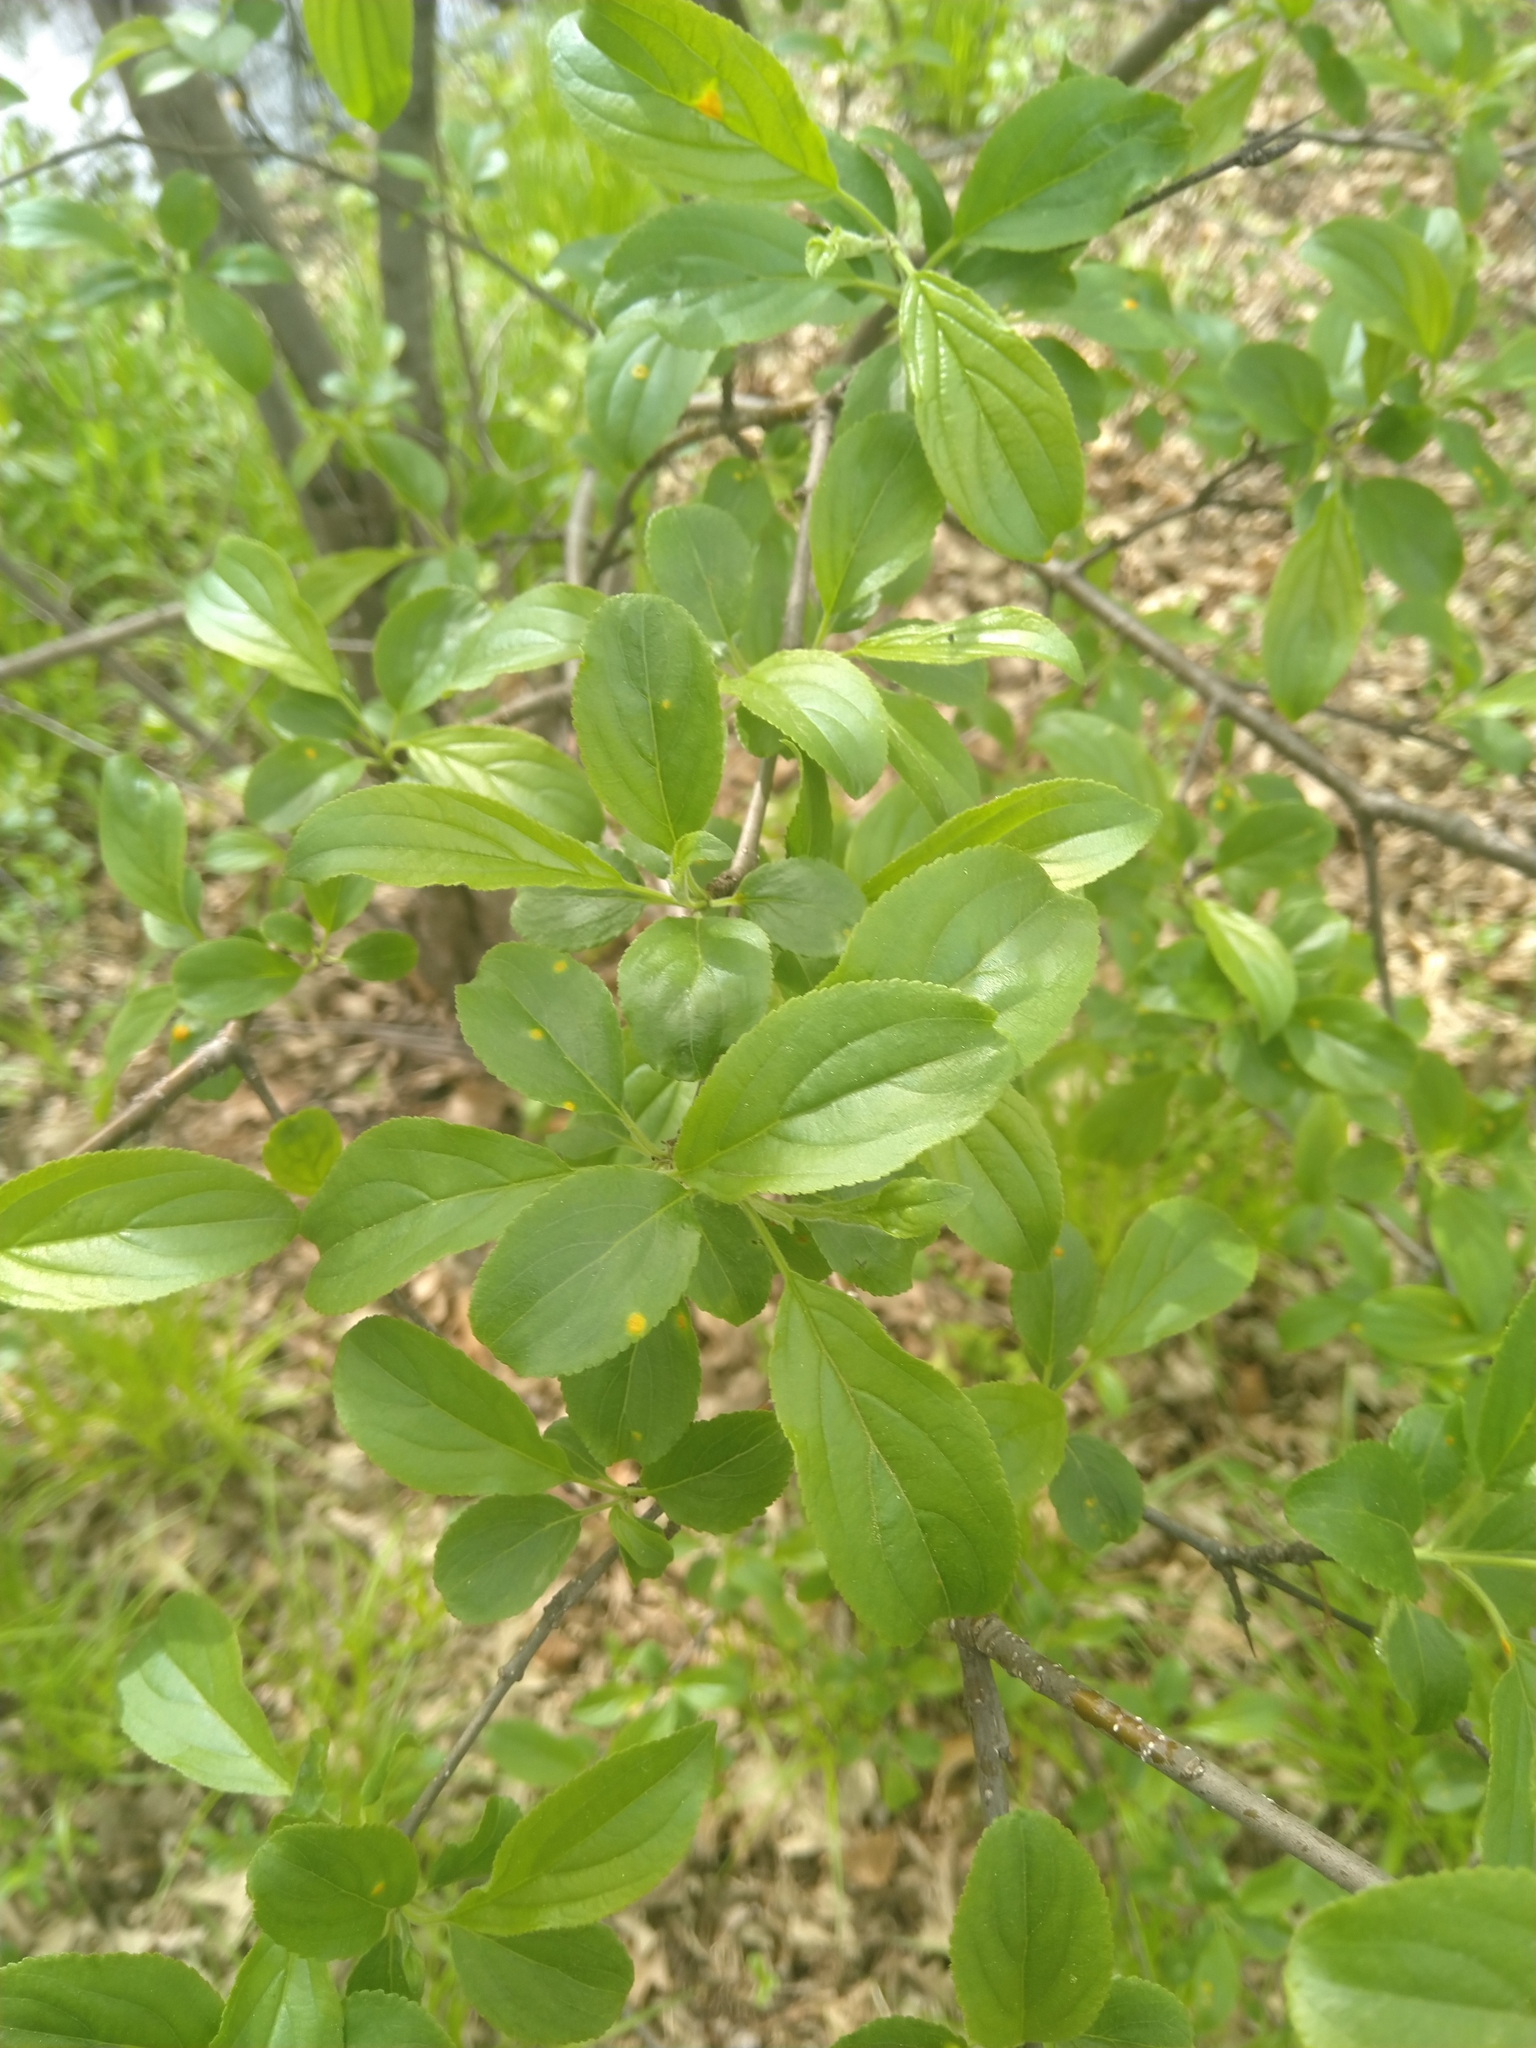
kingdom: Plantae
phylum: Tracheophyta
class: Magnoliopsida
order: Rosales
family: Rhamnaceae
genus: Rhamnus
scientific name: Rhamnus cathartica
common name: Common buckthorn
